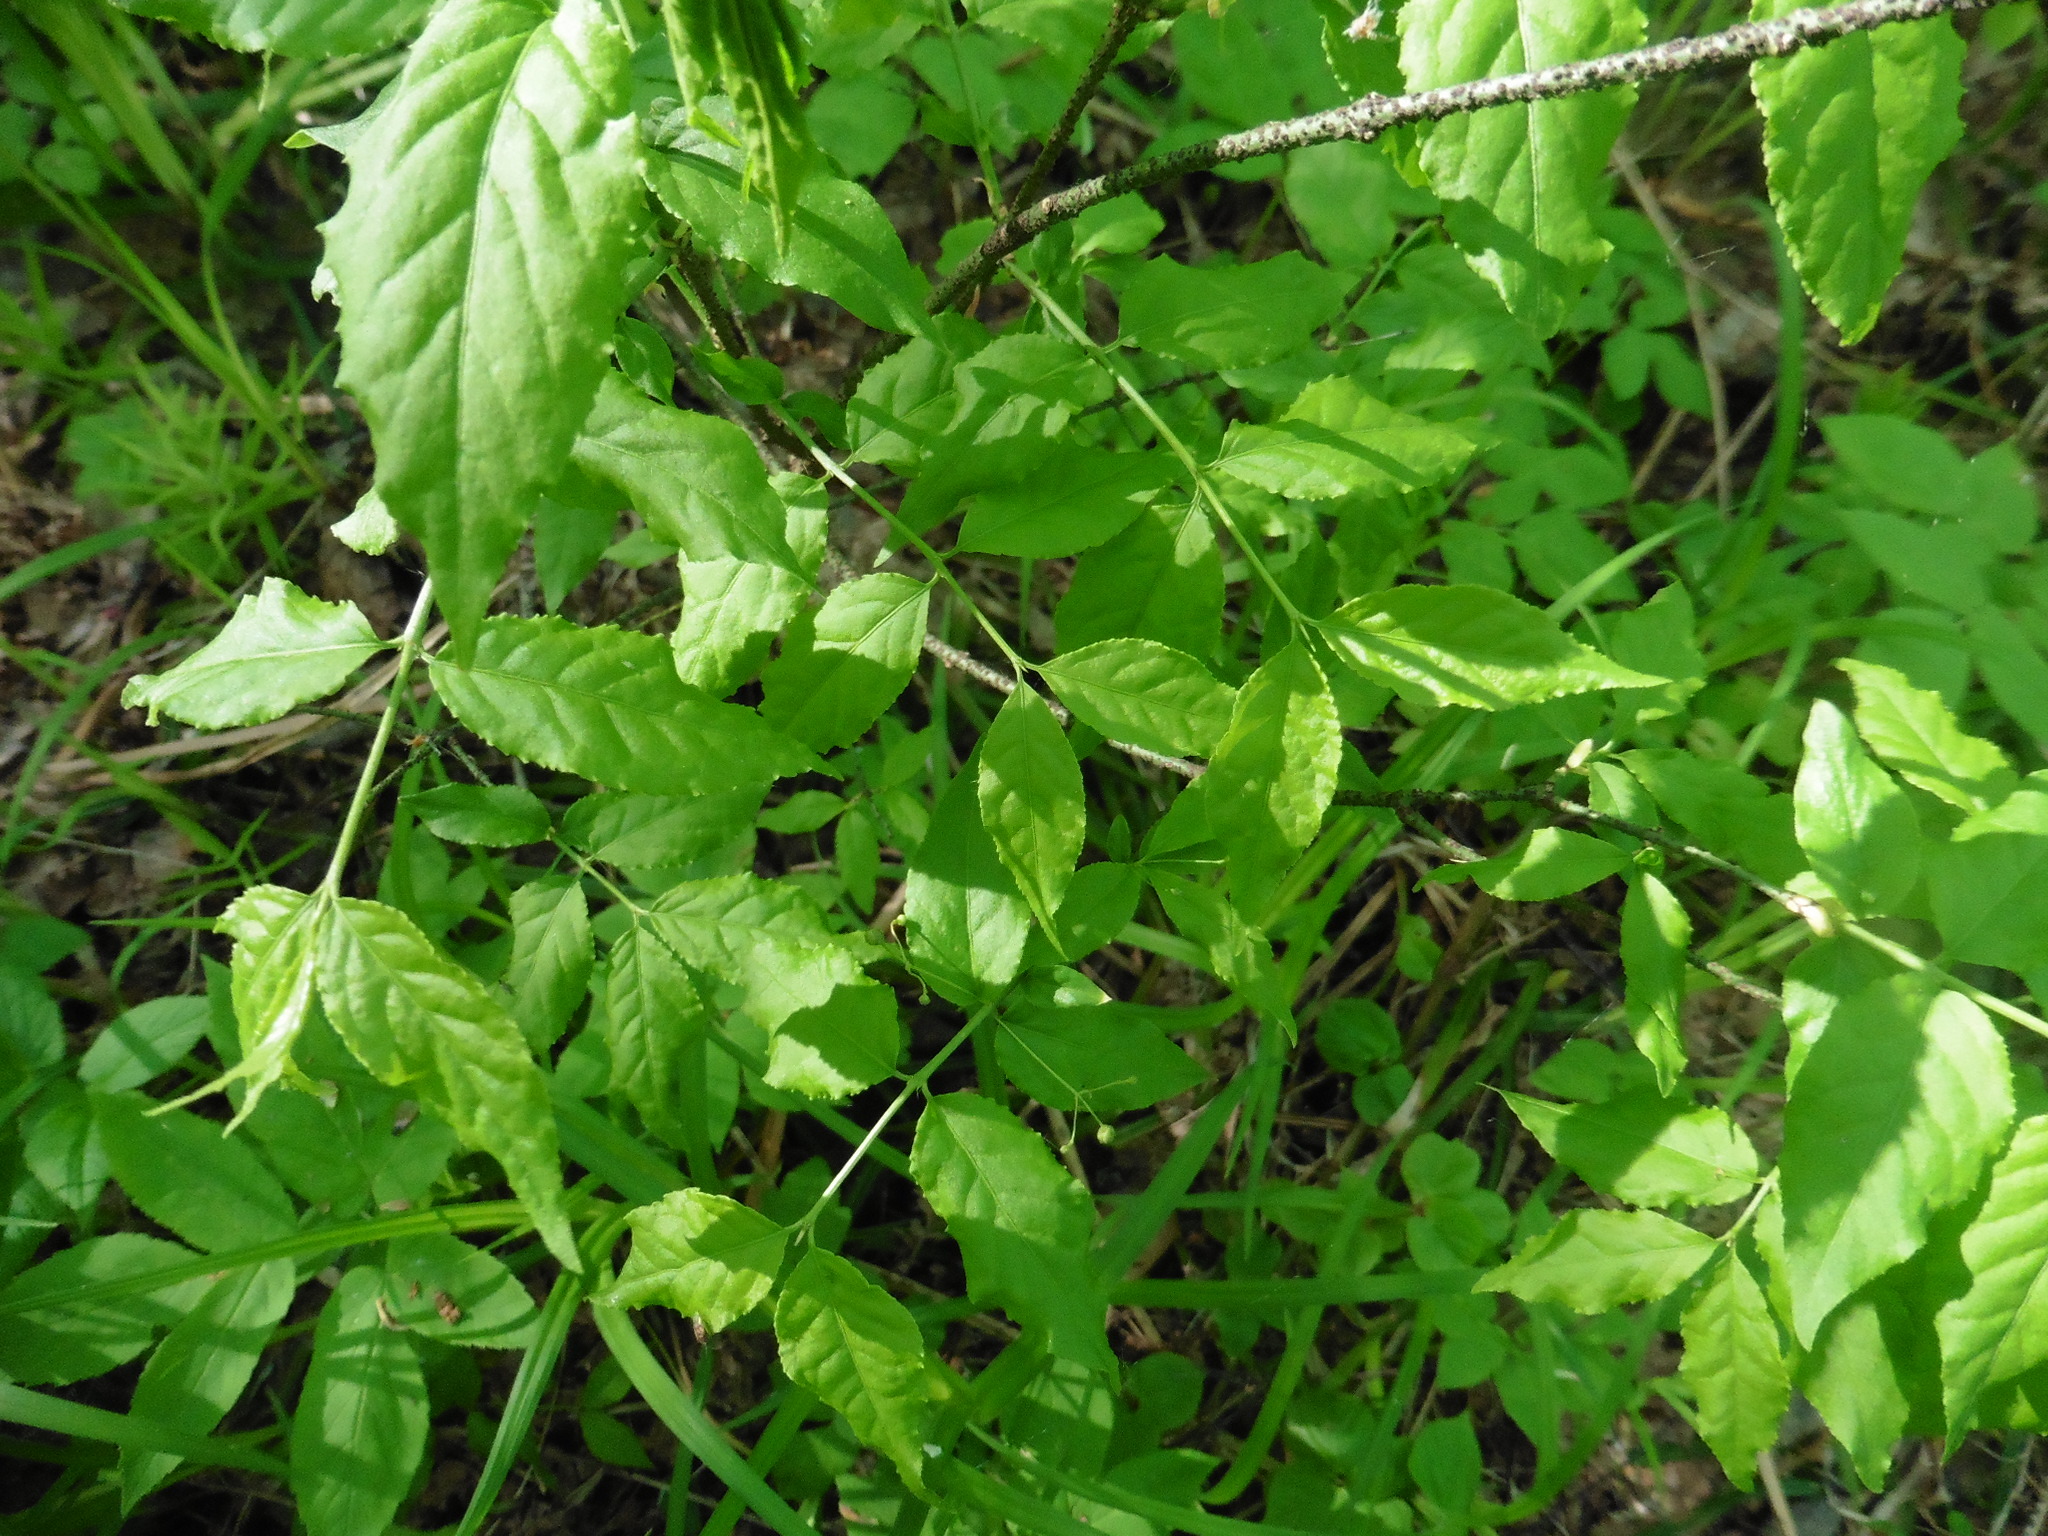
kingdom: Plantae
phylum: Tracheophyta
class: Magnoliopsida
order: Celastrales
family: Celastraceae
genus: Euonymus
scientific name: Euonymus verrucosus
